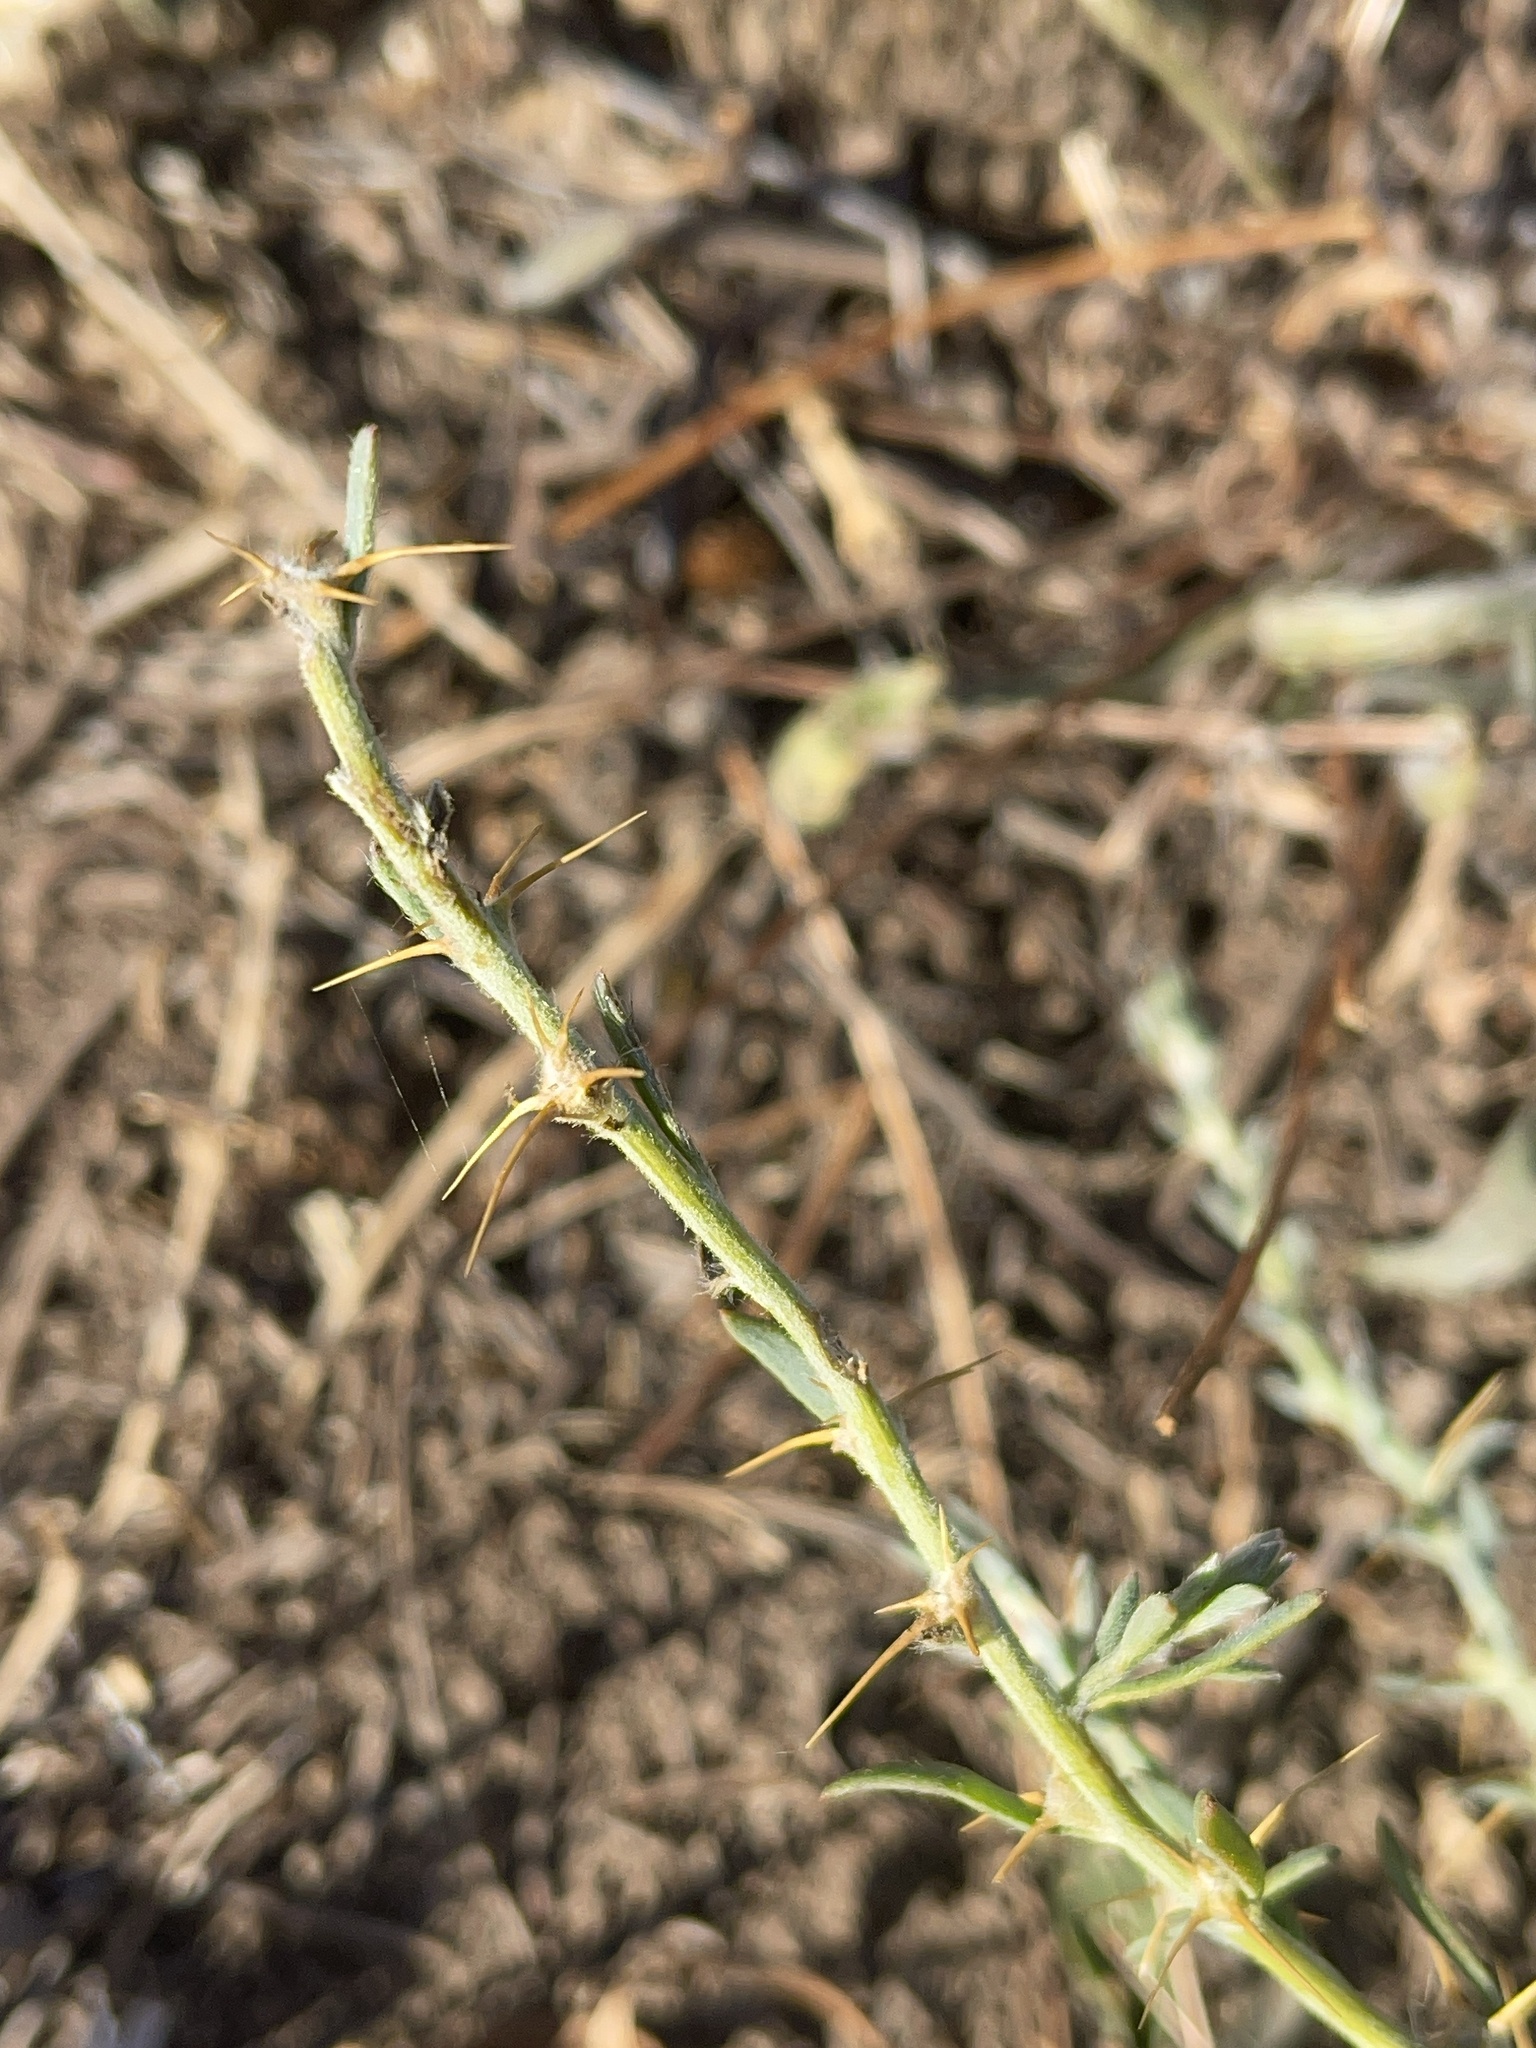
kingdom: Plantae
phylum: Tracheophyta
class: Magnoliopsida
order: Caryophyllales
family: Amaranthaceae
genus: Sclerolaena
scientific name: Sclerolaena muricata
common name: Roly-poly
